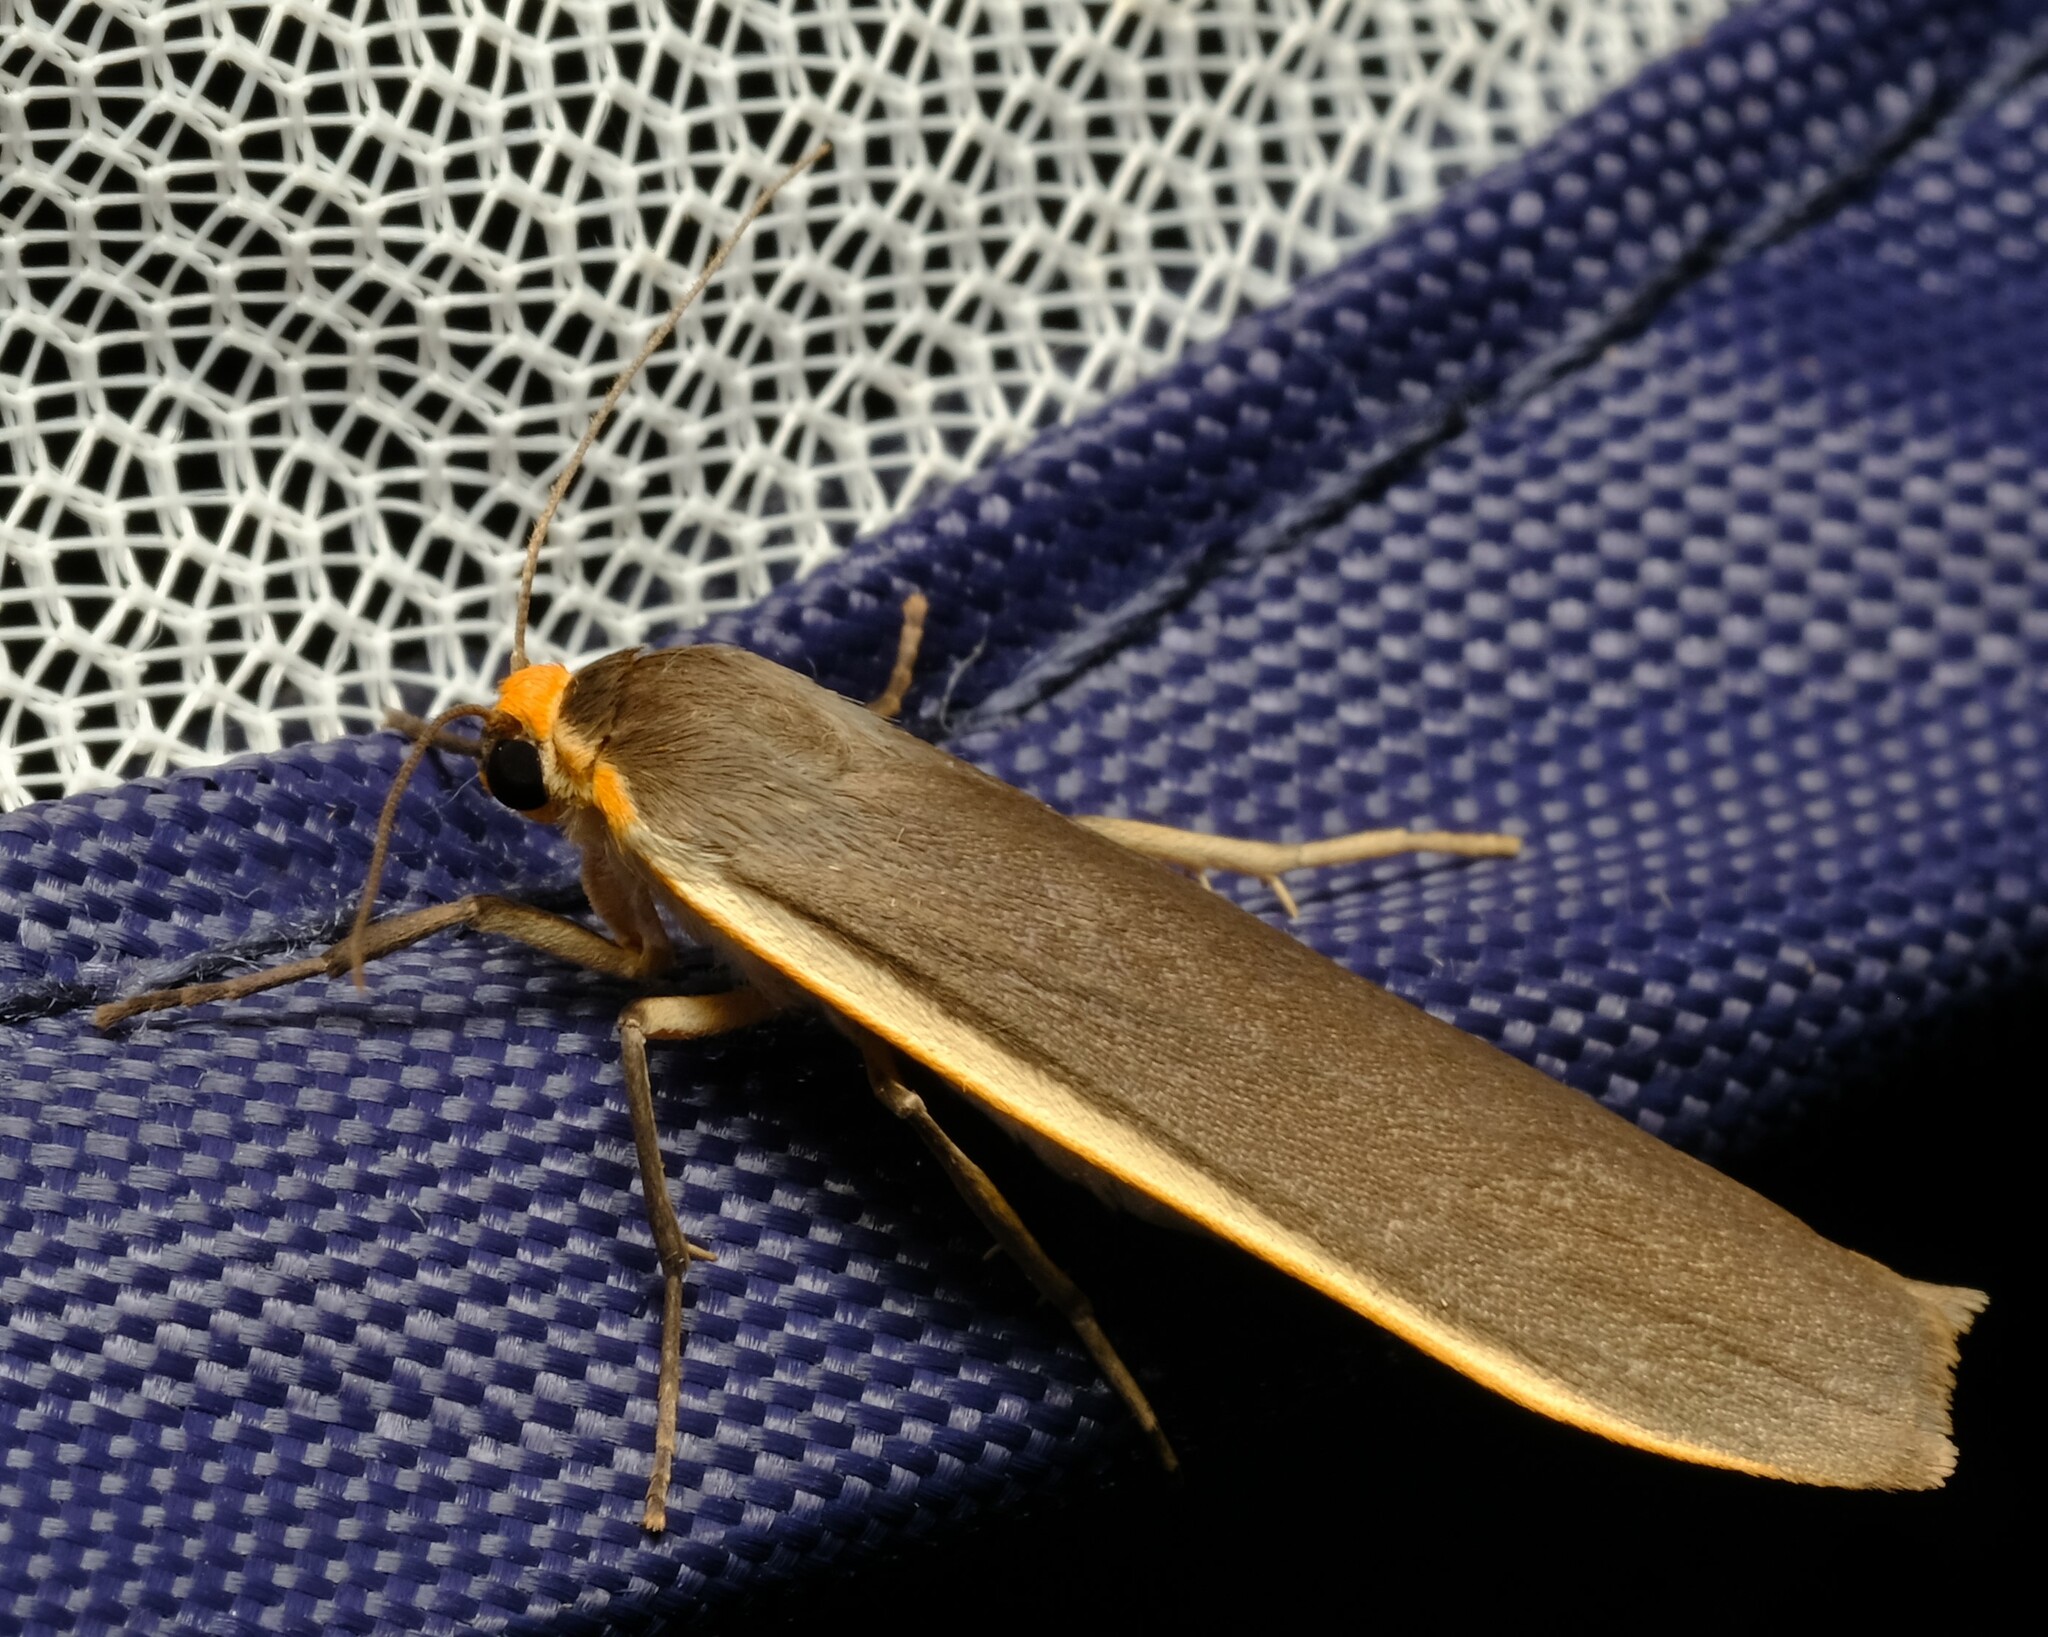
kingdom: Animalia
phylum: Arthropoda
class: Insecta
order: Lepidoptera
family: Erebidae
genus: Palaeosia
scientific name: Palaeosia bicosta
